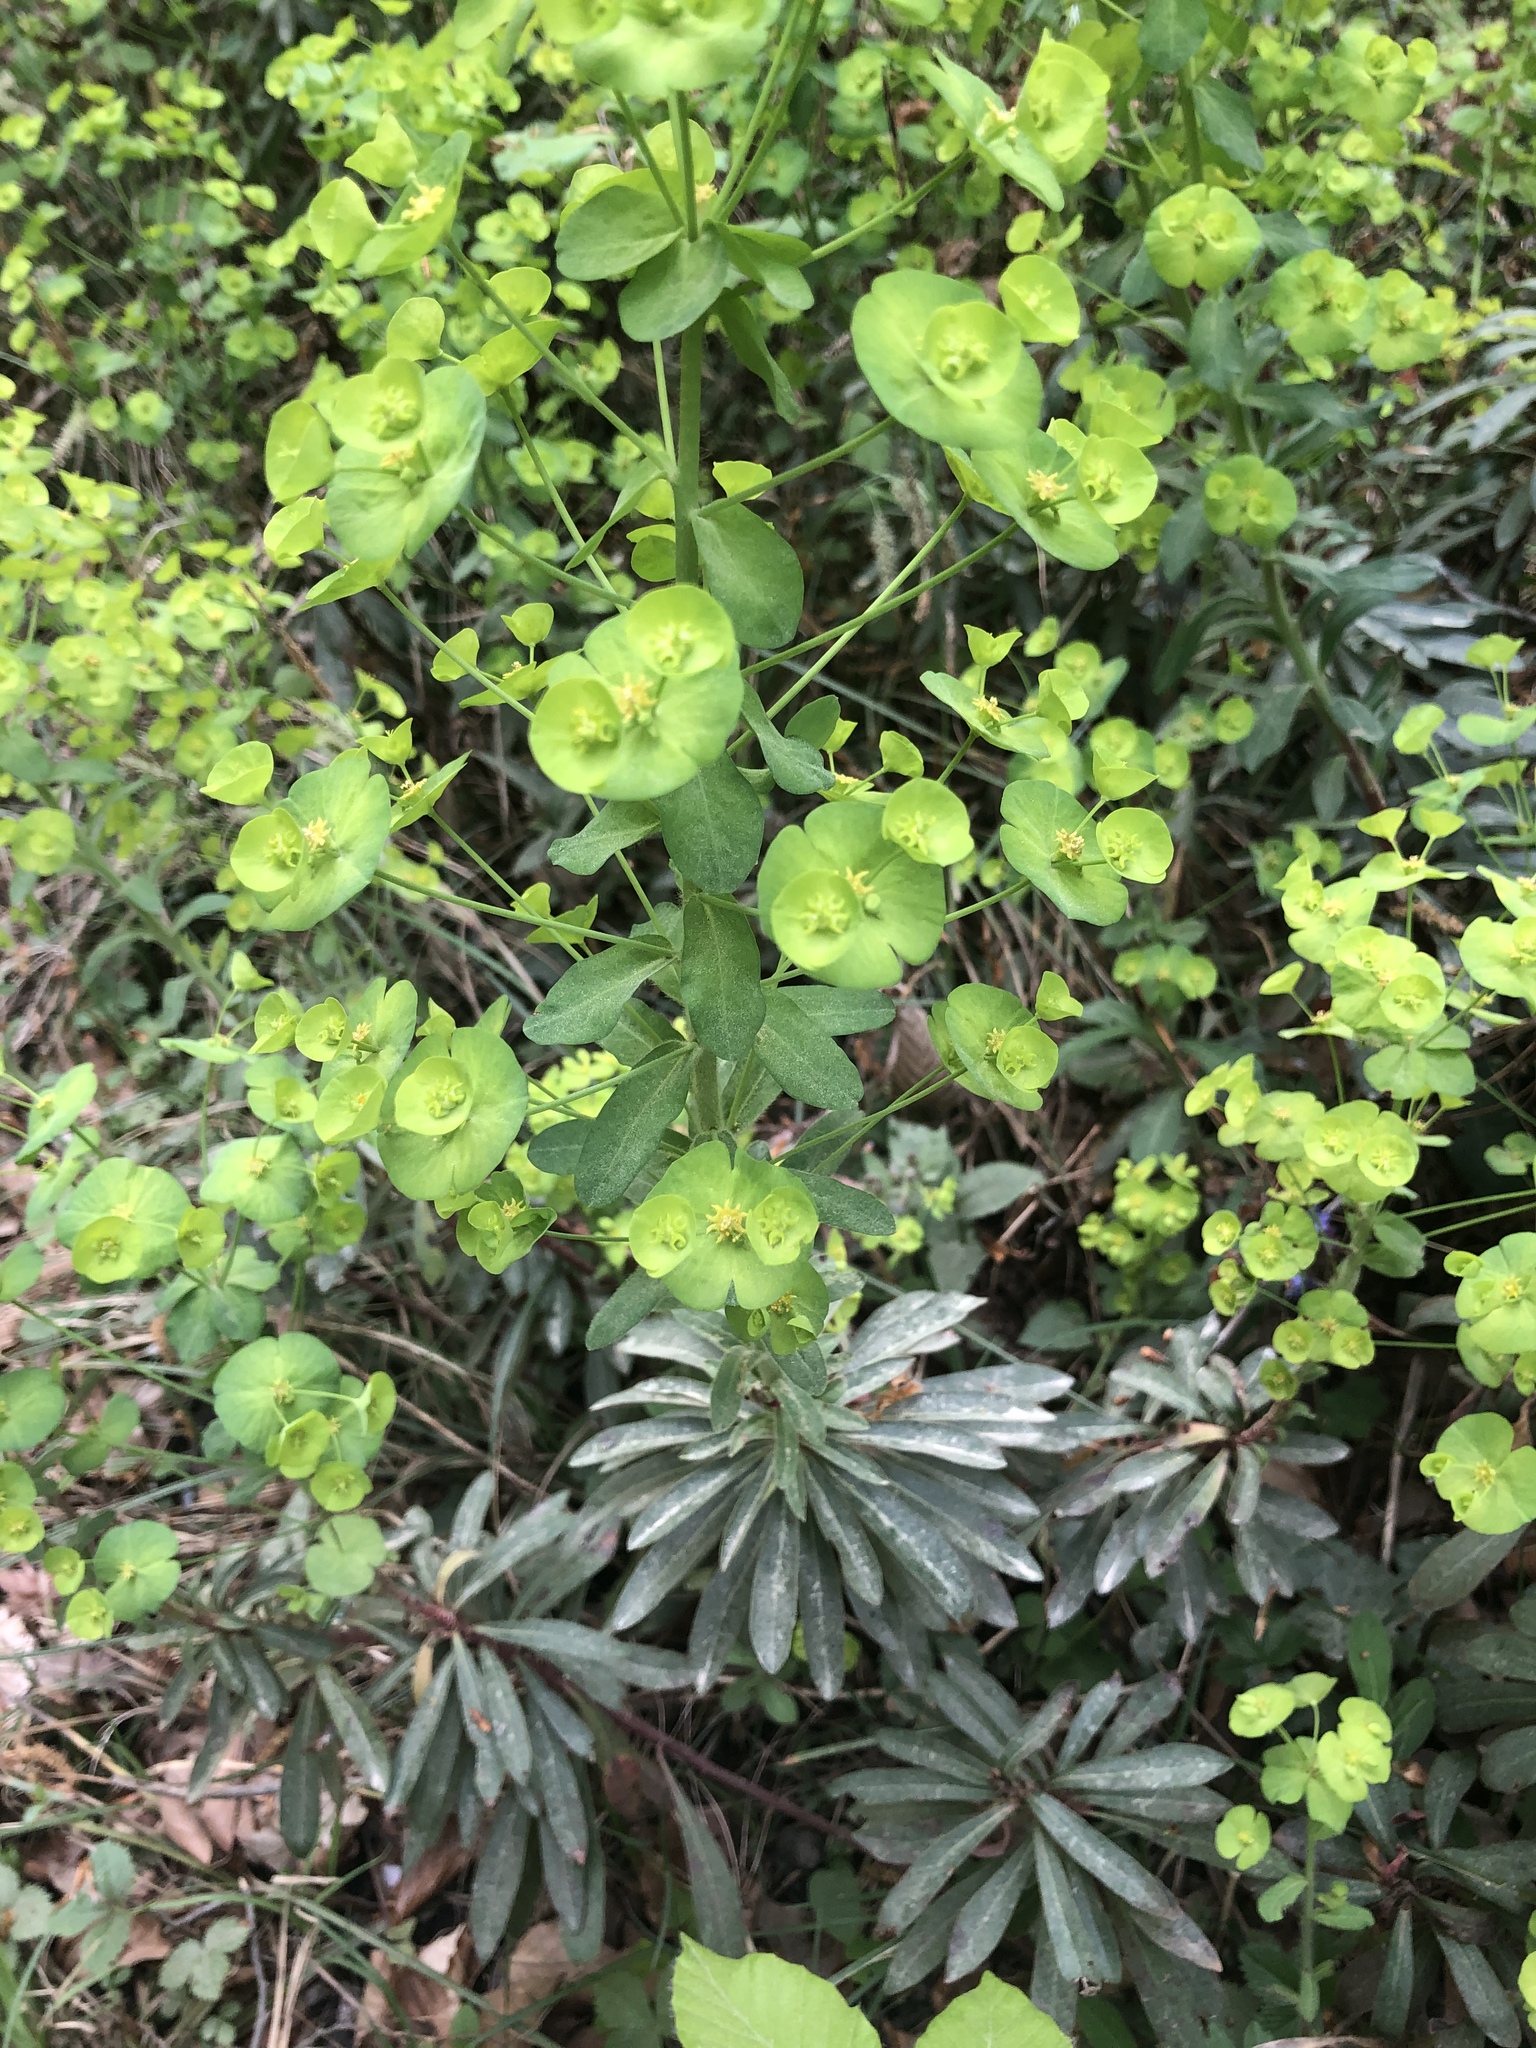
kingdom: Plantae
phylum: Tracheophyta
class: Magnoliopsida
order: Malpighiales
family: Euphorbiaceae
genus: Euphorbia
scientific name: Euphorbia amygdaloides
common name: Wood spurge
